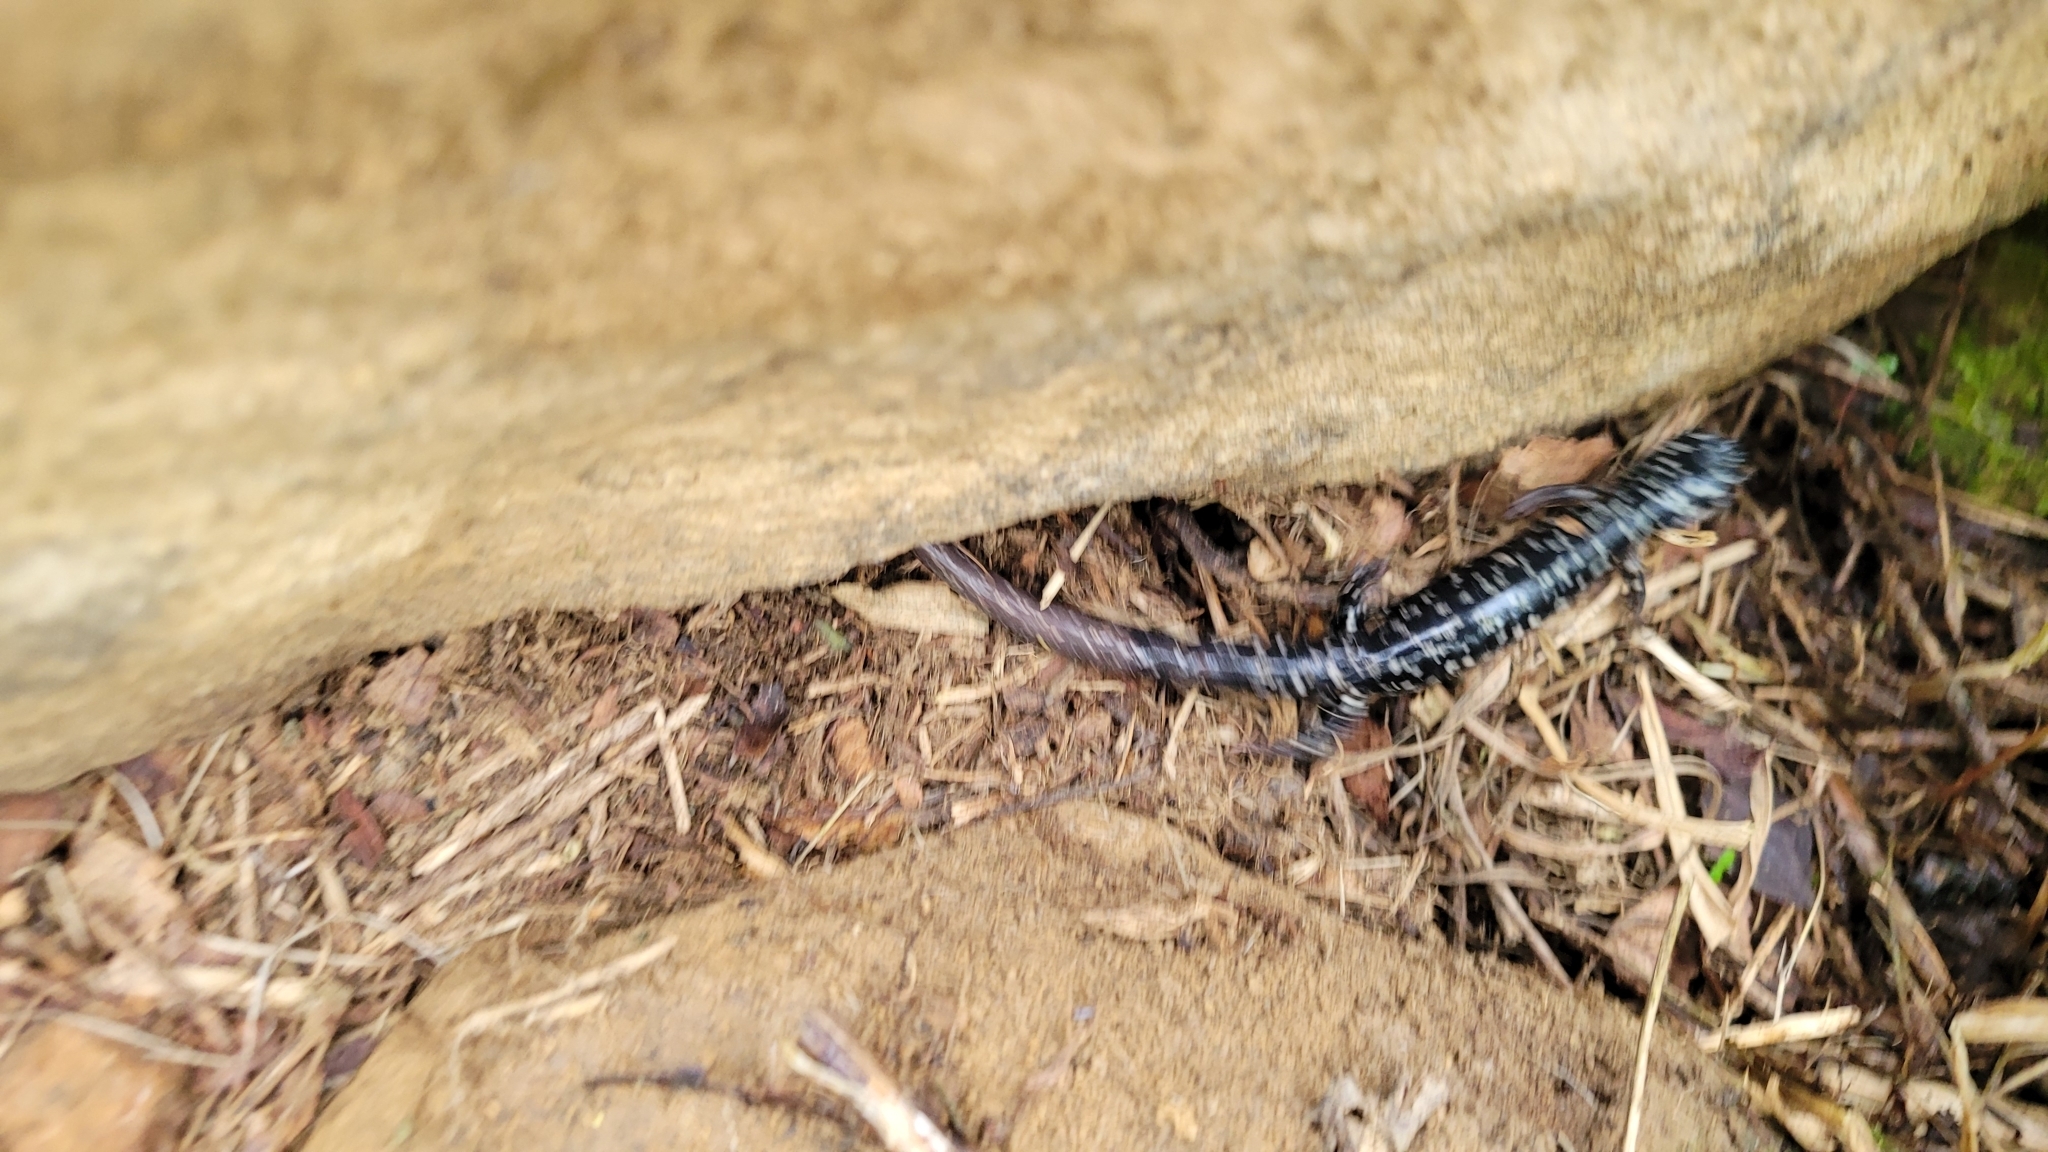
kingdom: Animalia
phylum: Chordata
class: Amphibia
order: Caudata
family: Plethodontidae
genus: Plethodon
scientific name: Plethodon glutinosus
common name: Northern slimy salamander
